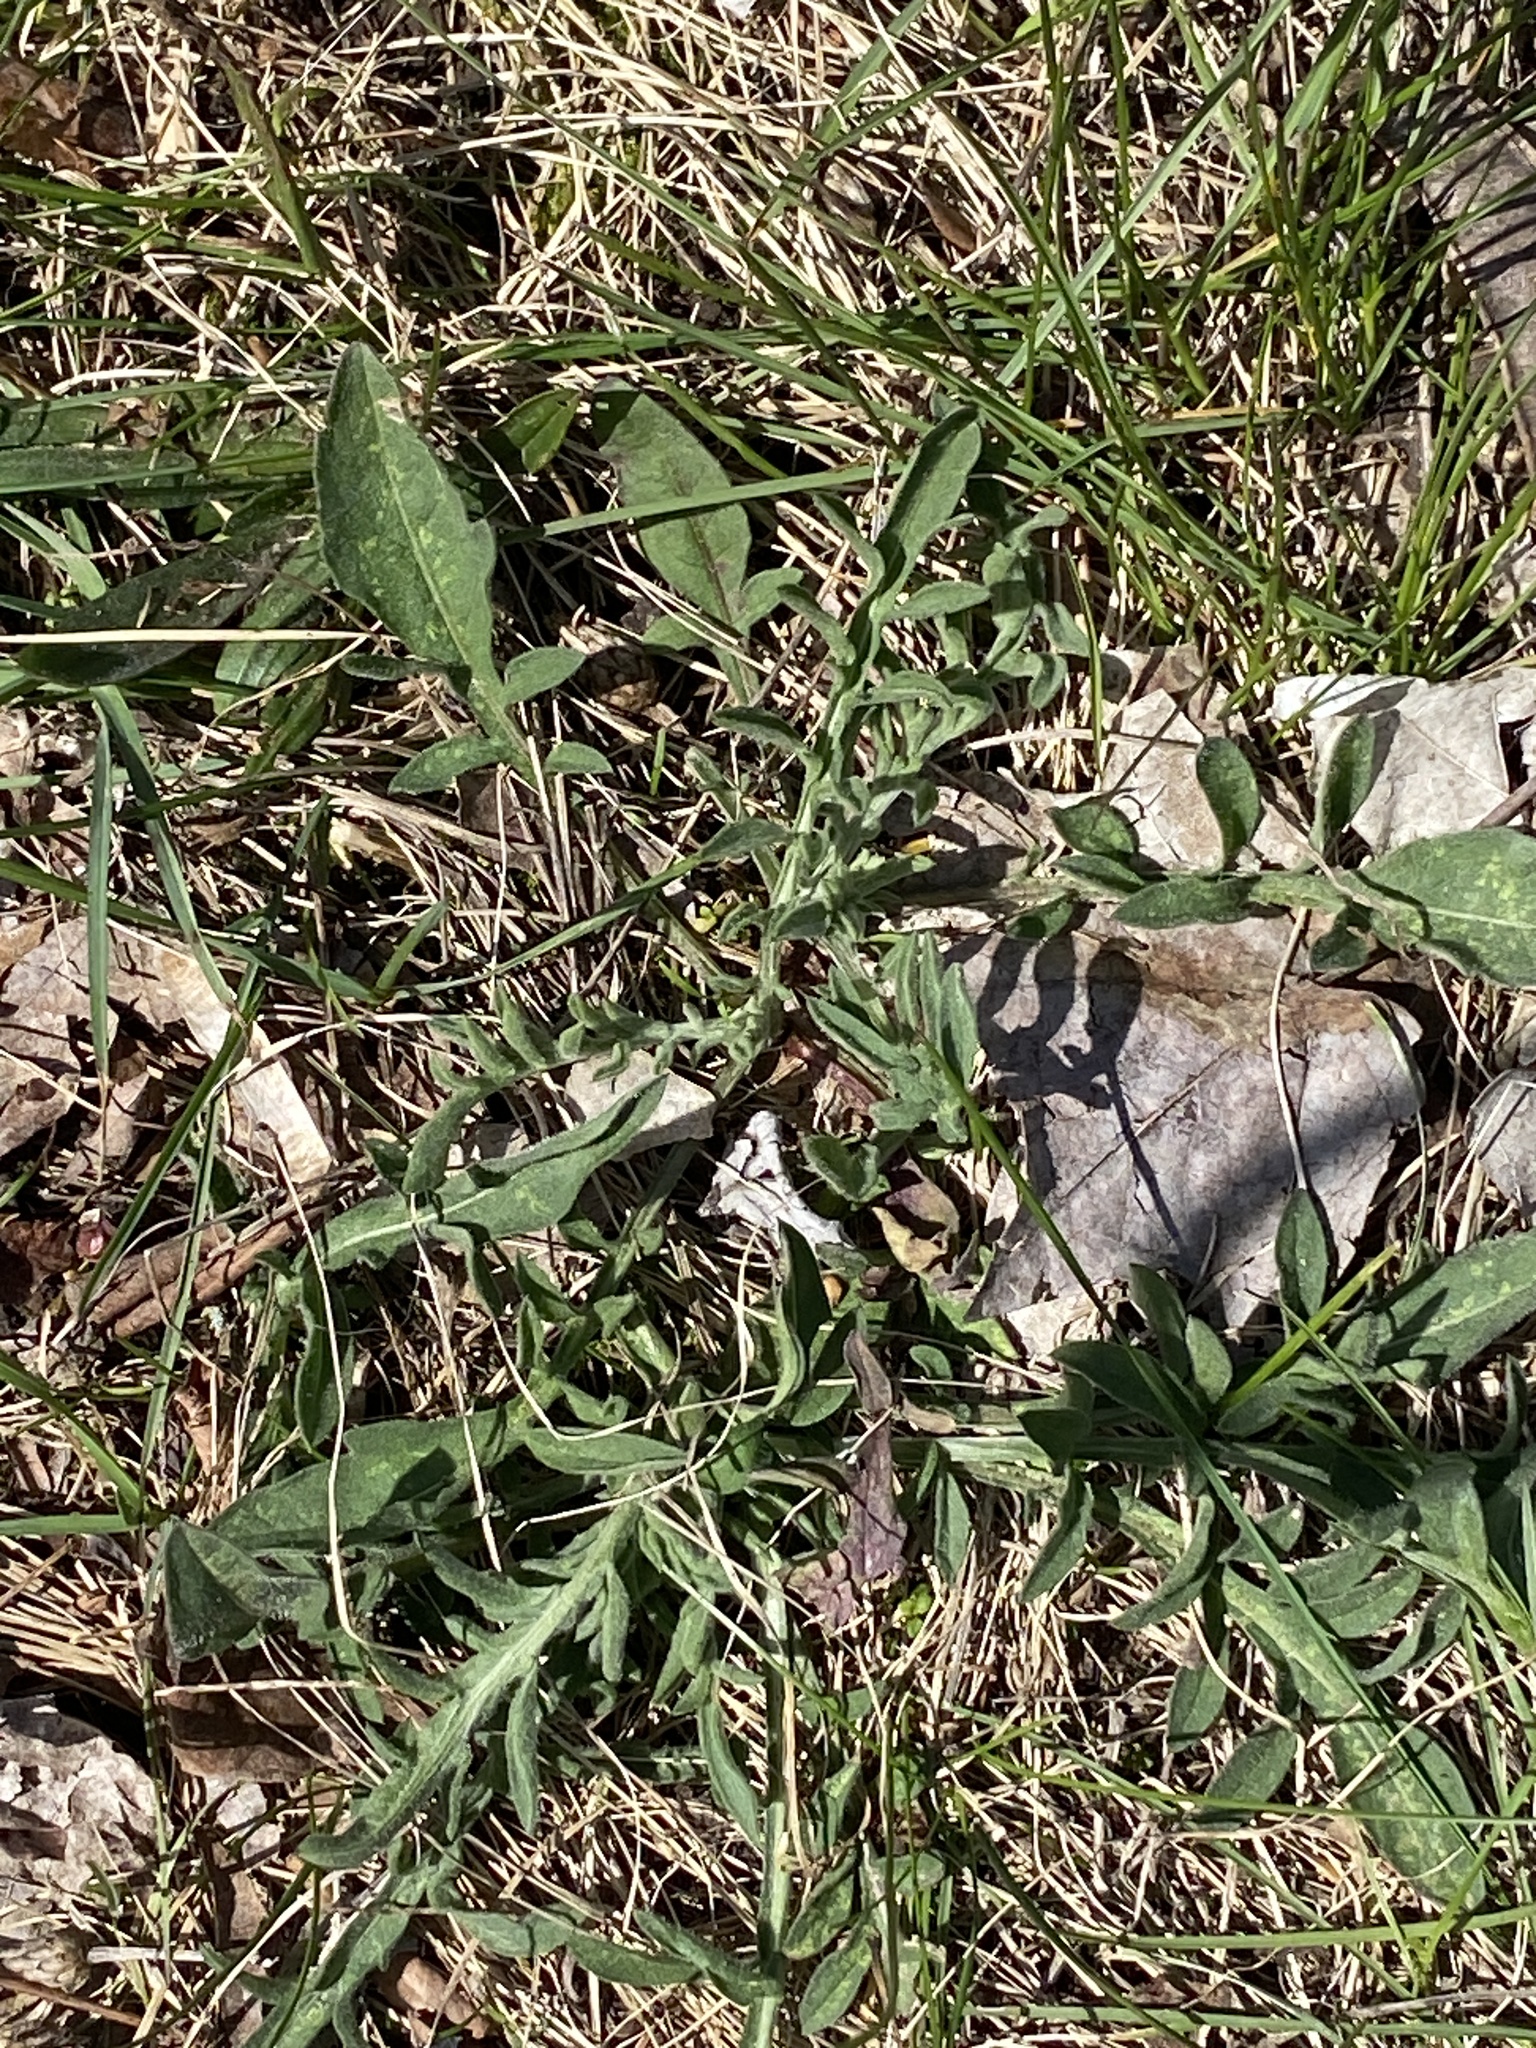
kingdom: Plantae
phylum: Tracheophyta
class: Magnoliopsida
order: Asterales
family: Asteraceae
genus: Centaurea
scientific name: Centaurea stoebe
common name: Spotted knapweed
